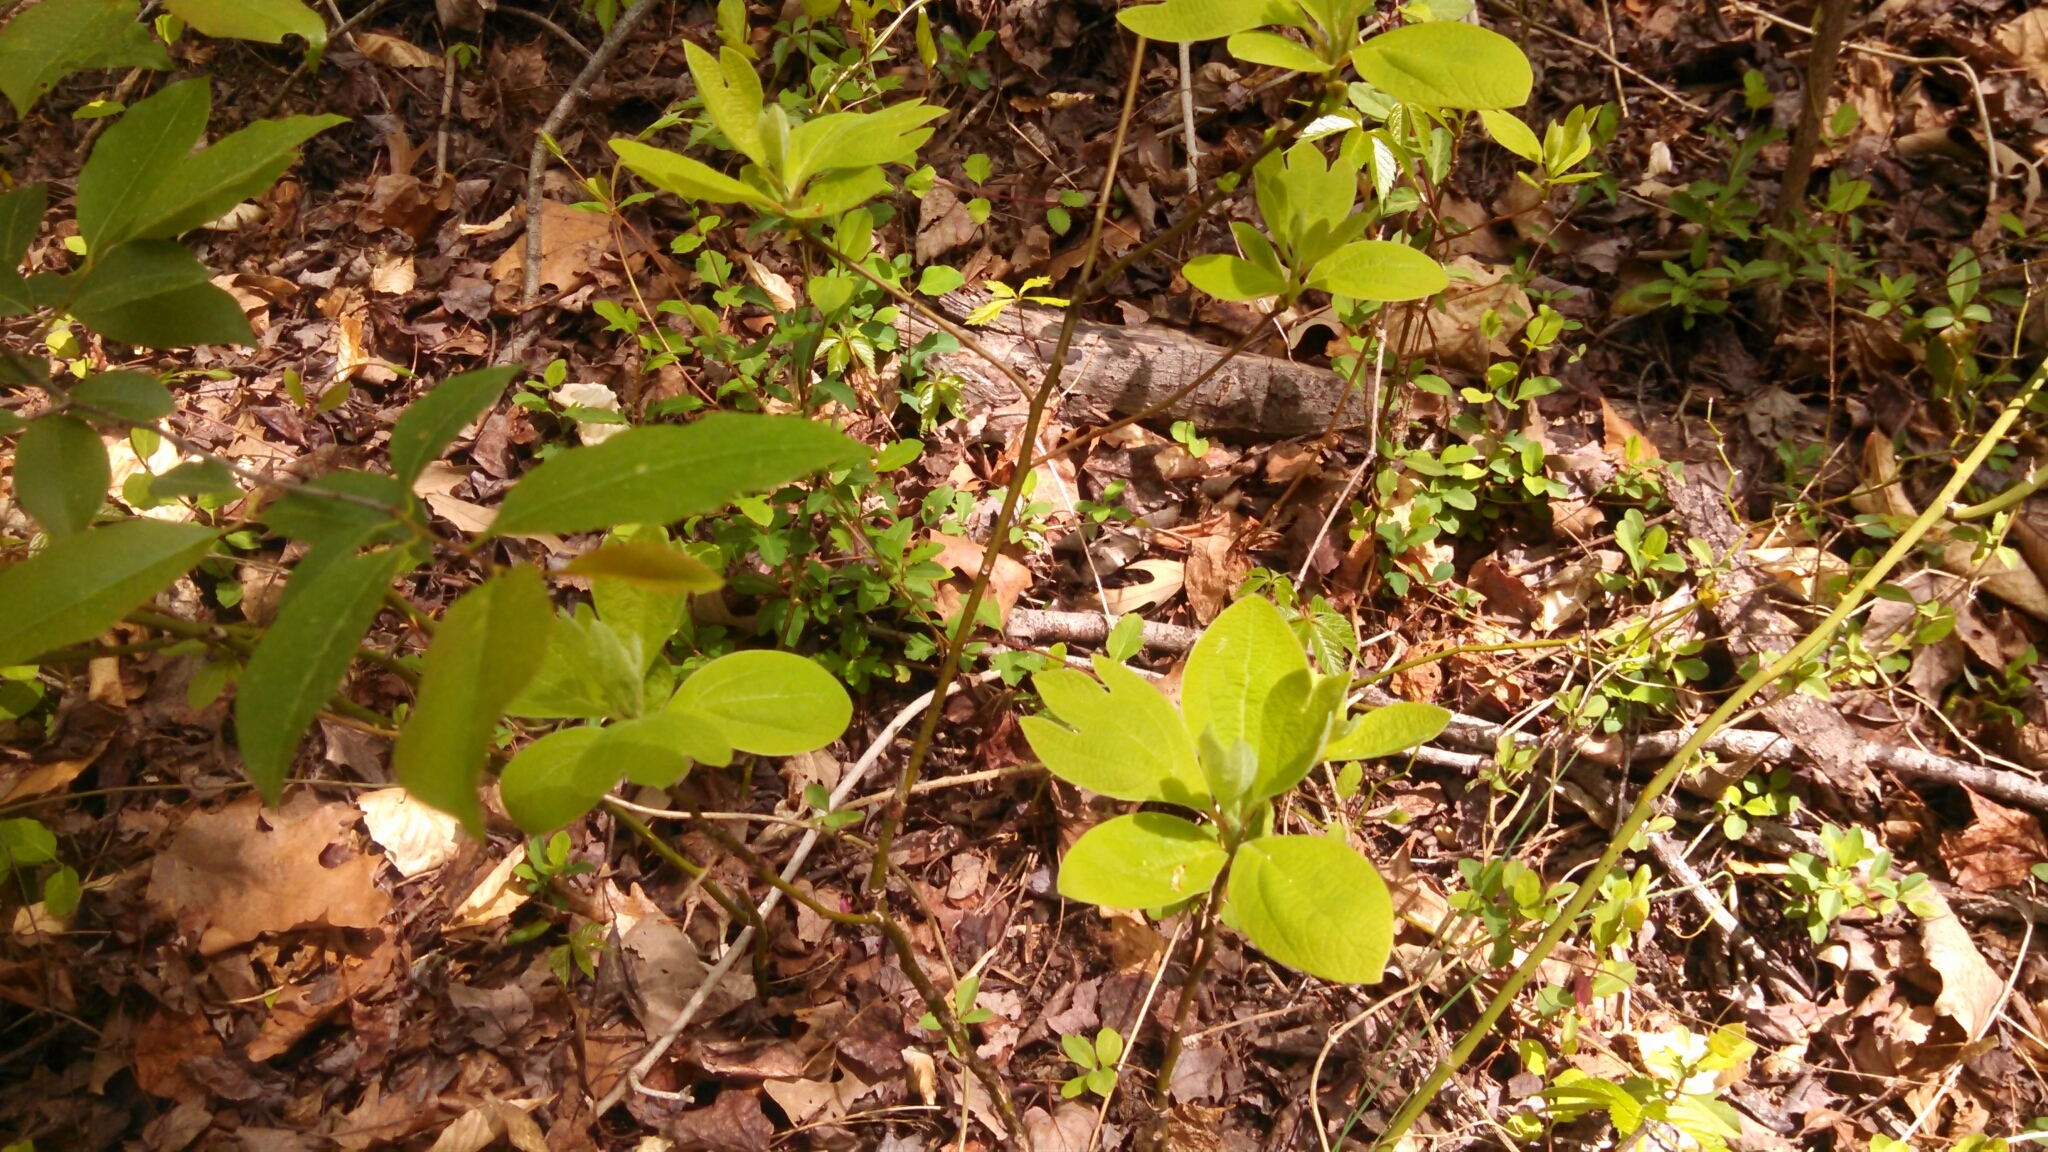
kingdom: Plantae
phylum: Tracheophyta
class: Magnoliopsida
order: Laurales
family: Lauraceae
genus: Sassafras
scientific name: Sassafras albidum
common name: Sassafras
